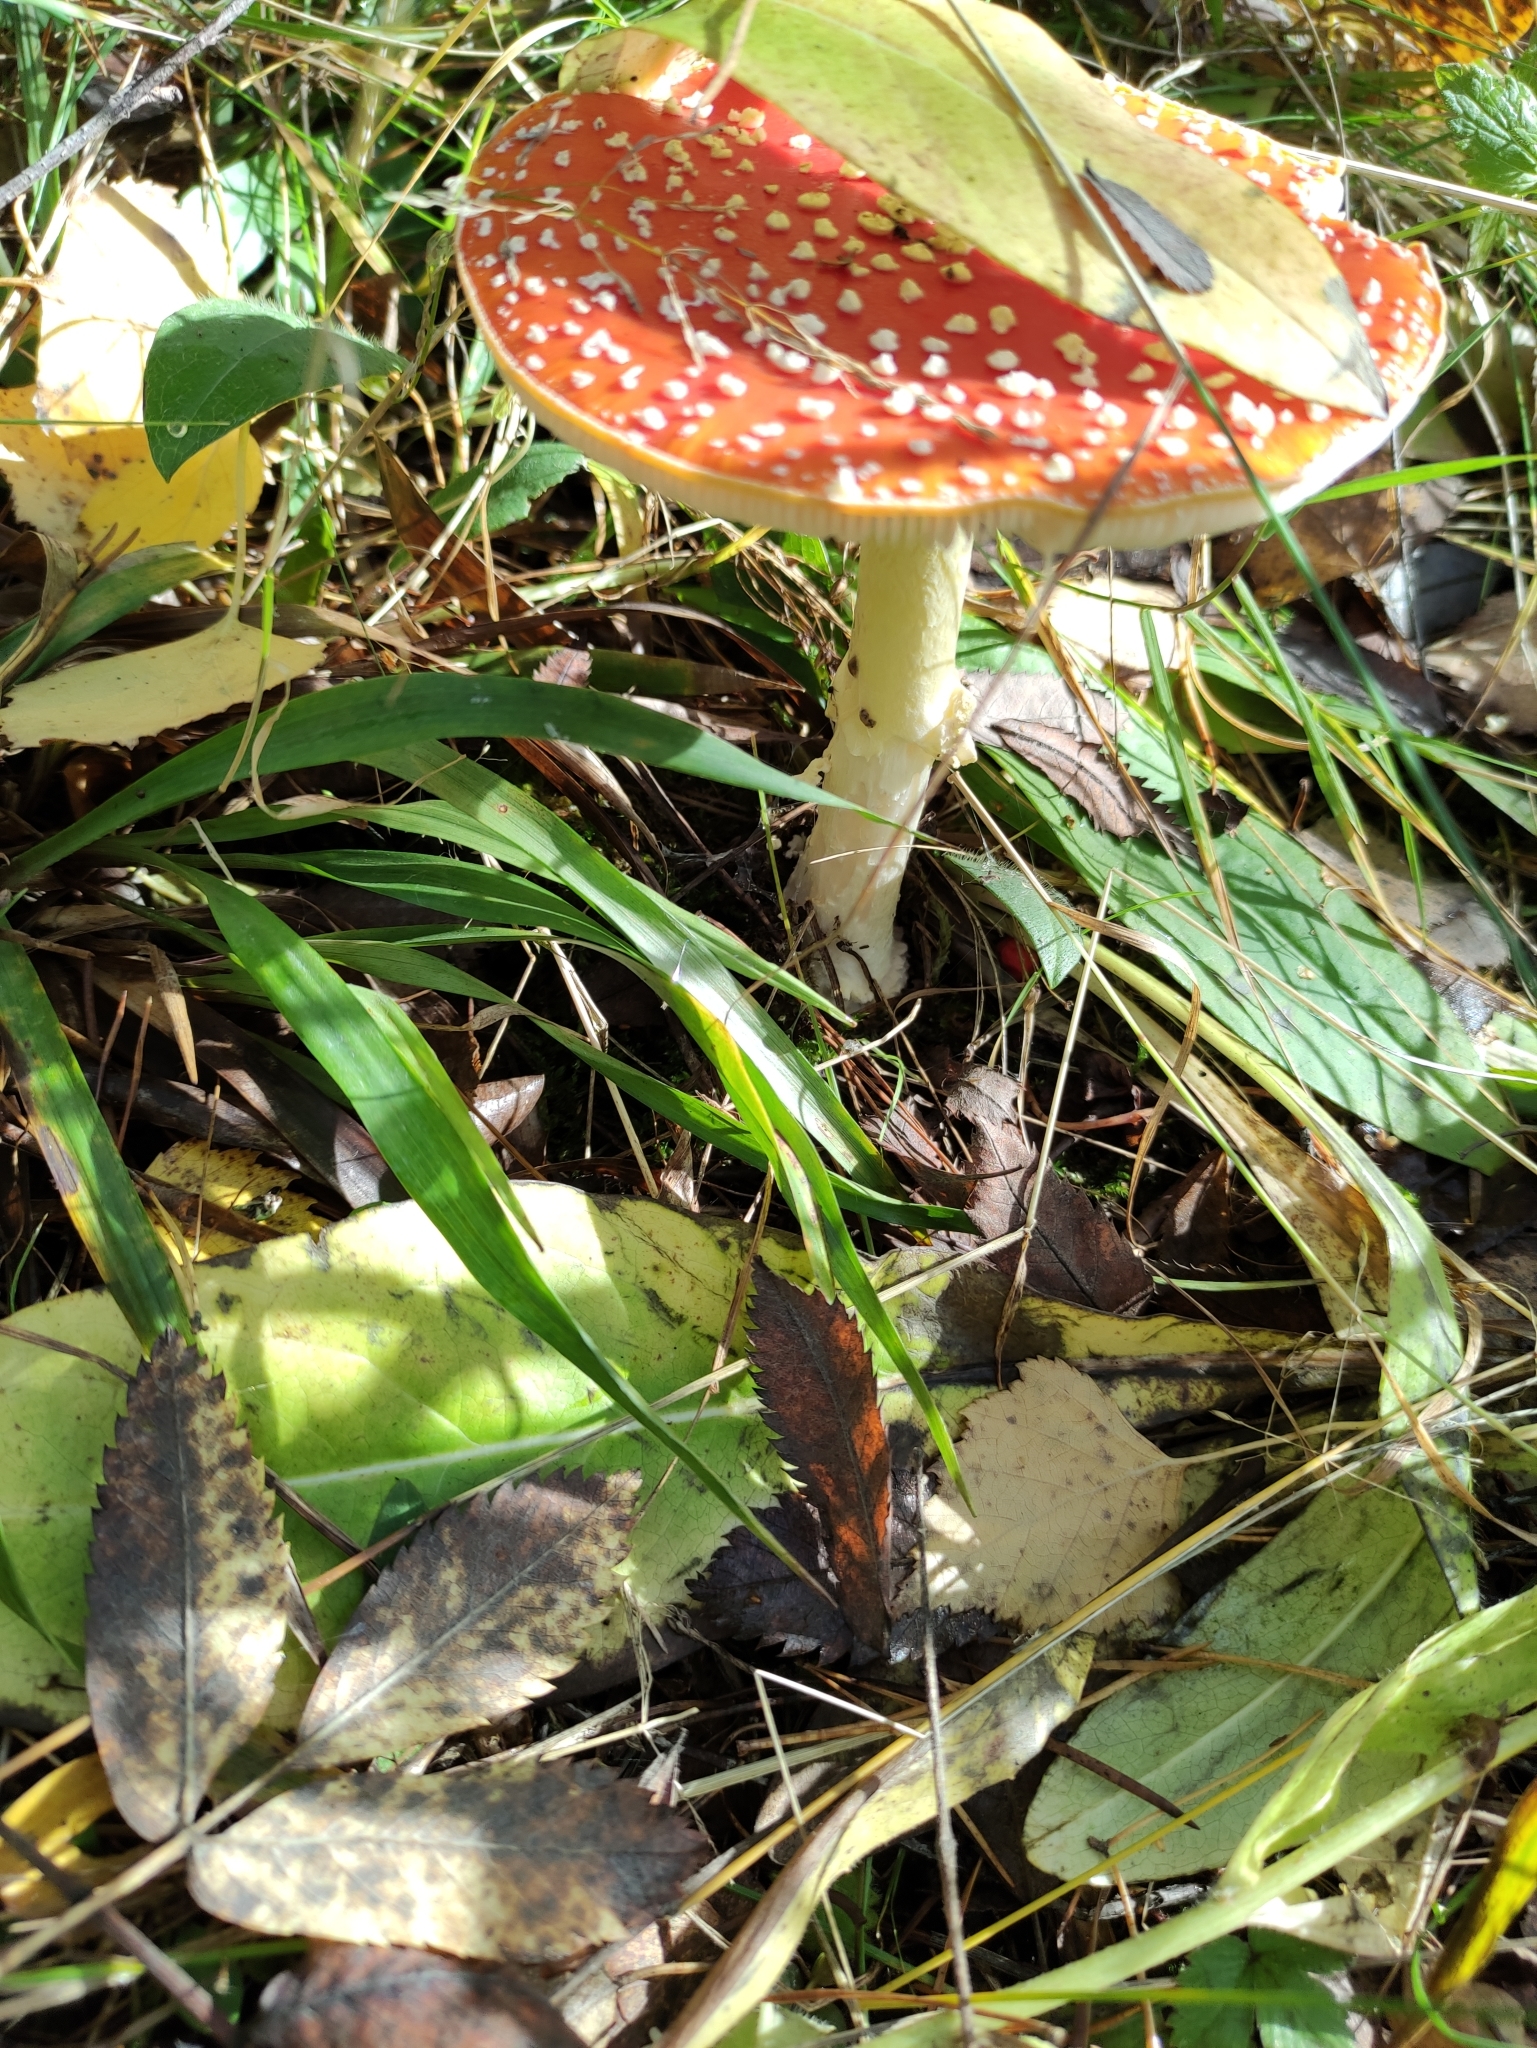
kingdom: Fungi
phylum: Basidiomycota
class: Agaricomycetes
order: Agaricales
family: Amanitaceae
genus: Amanita
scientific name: Amanita muscaria
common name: Fly agaric
